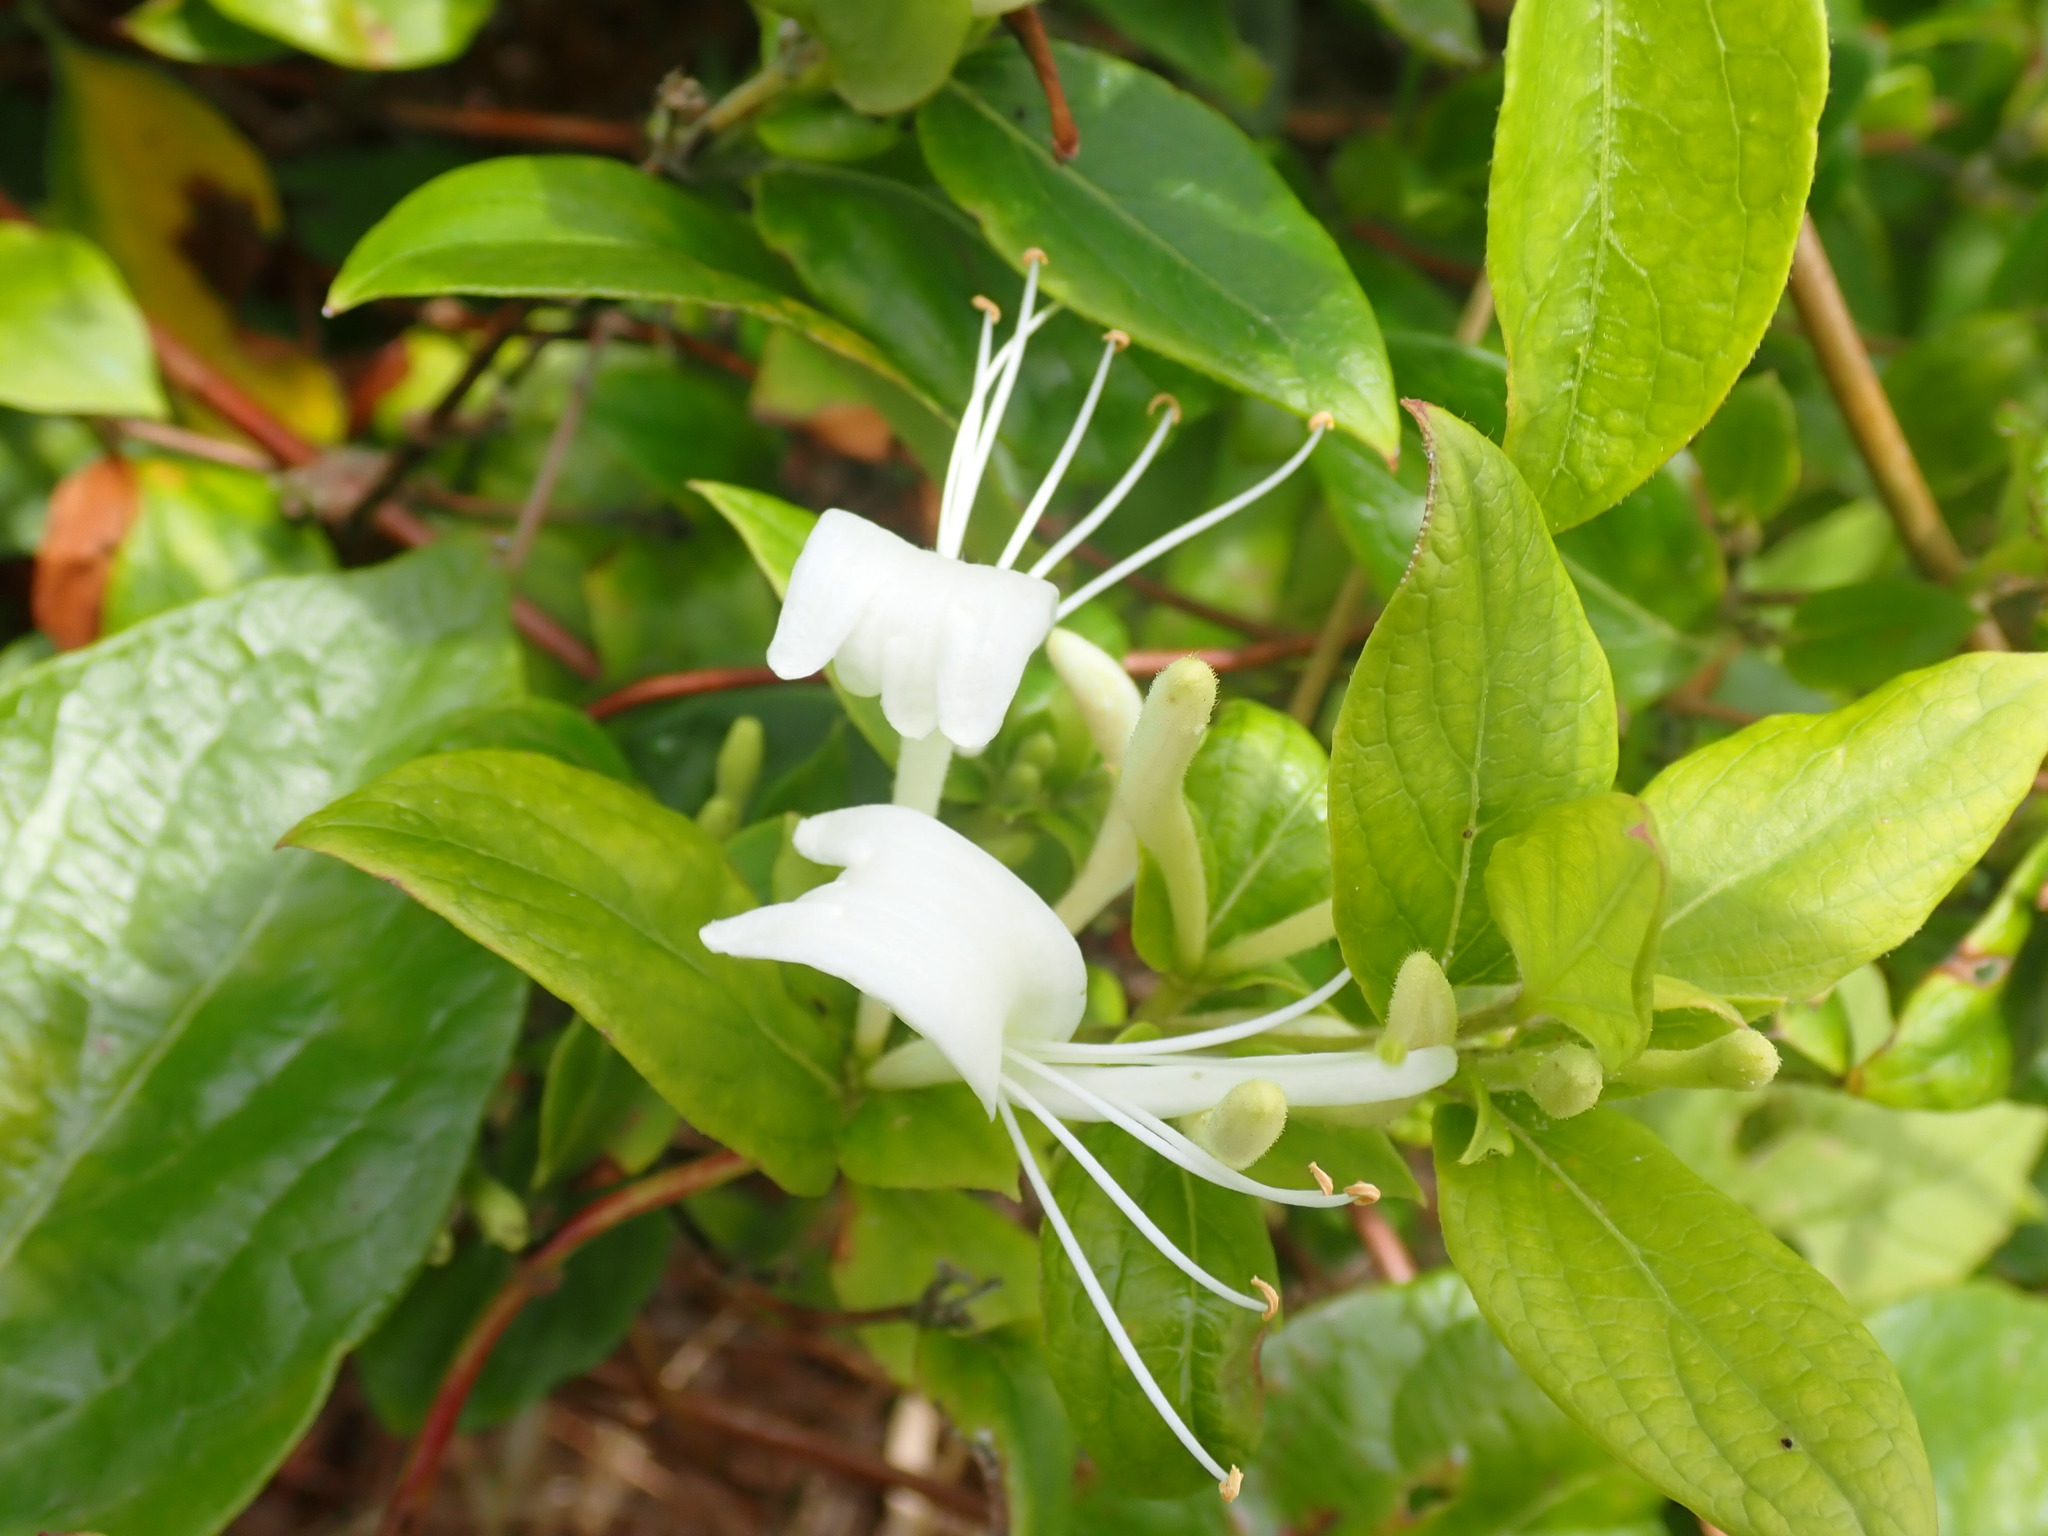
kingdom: Plantae
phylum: Tracheophyta
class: Magnoliopsida
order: Dipsacales
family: Caprifoliaceae
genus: Lonicera
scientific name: Lonicera japonica
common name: Japanese honeysuckle
